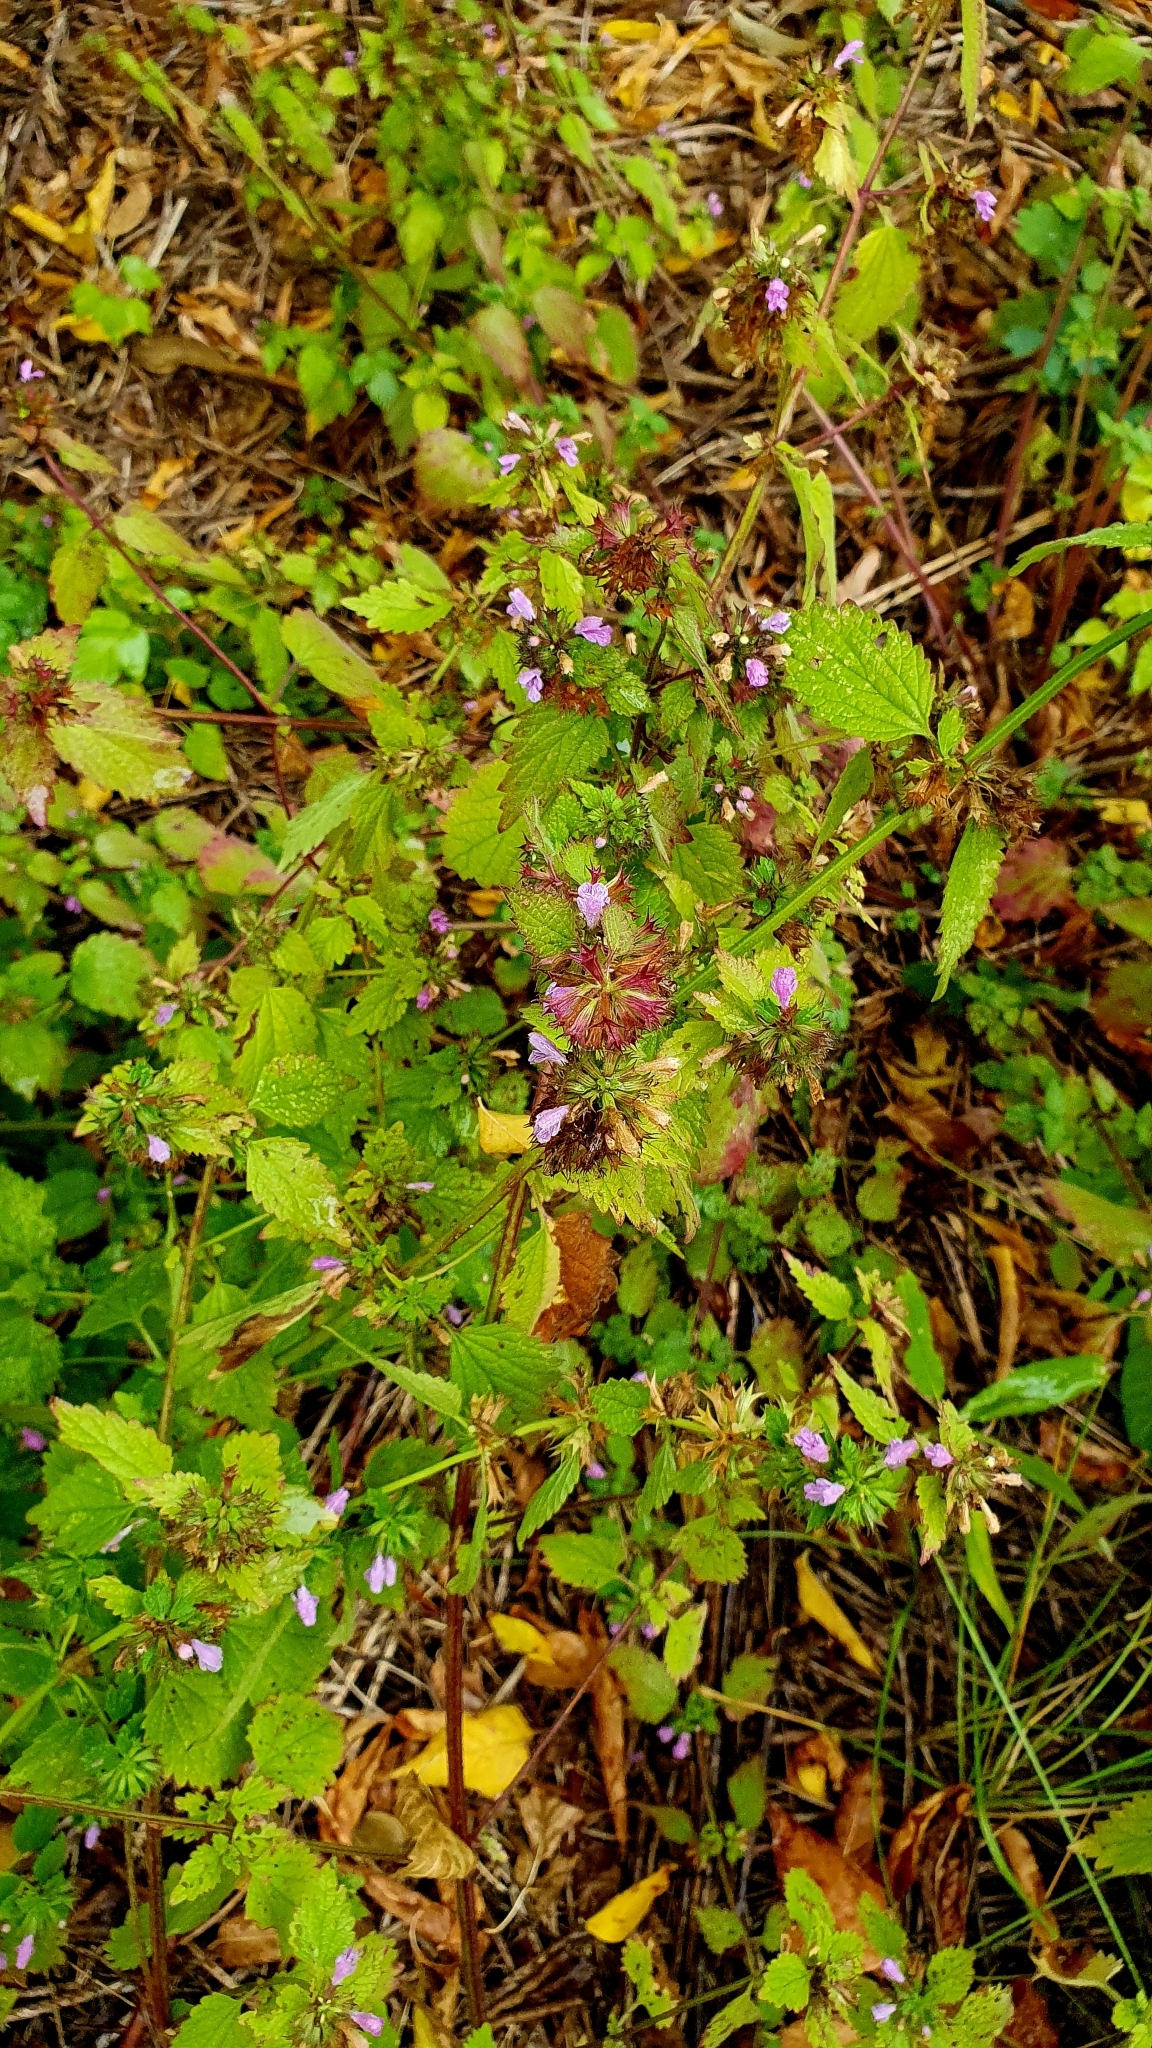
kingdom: Plantae
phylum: Tracheophyta
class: Magnoliopsida
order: Lamiales
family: Lamiaceae
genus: Ballota
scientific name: Ballota nigra
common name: Black horehound
